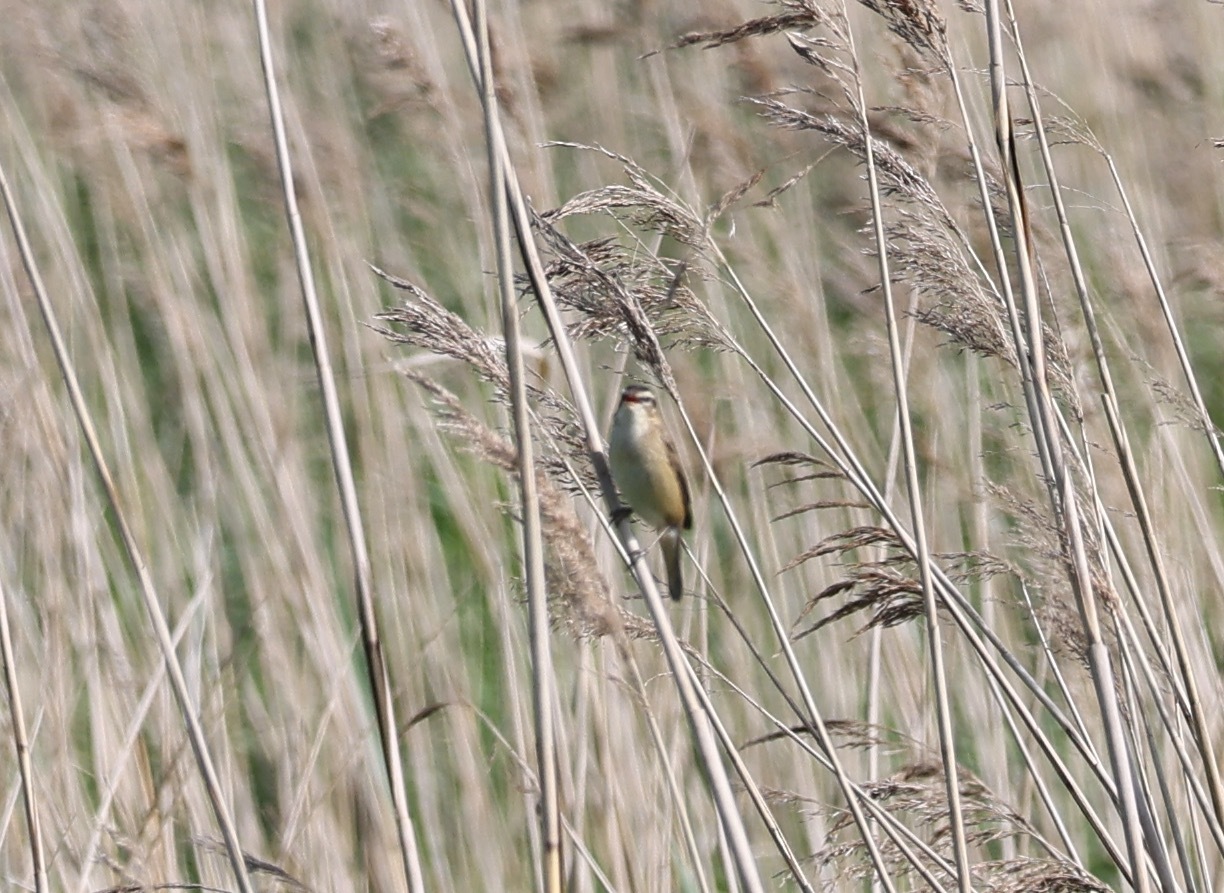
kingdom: Animalia
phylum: Chordata
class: Aves
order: Passeriformes
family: Acrocephalidae
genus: Acrocephalus
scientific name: Acrocephalus schoenobaenus
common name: Sedge warbler
